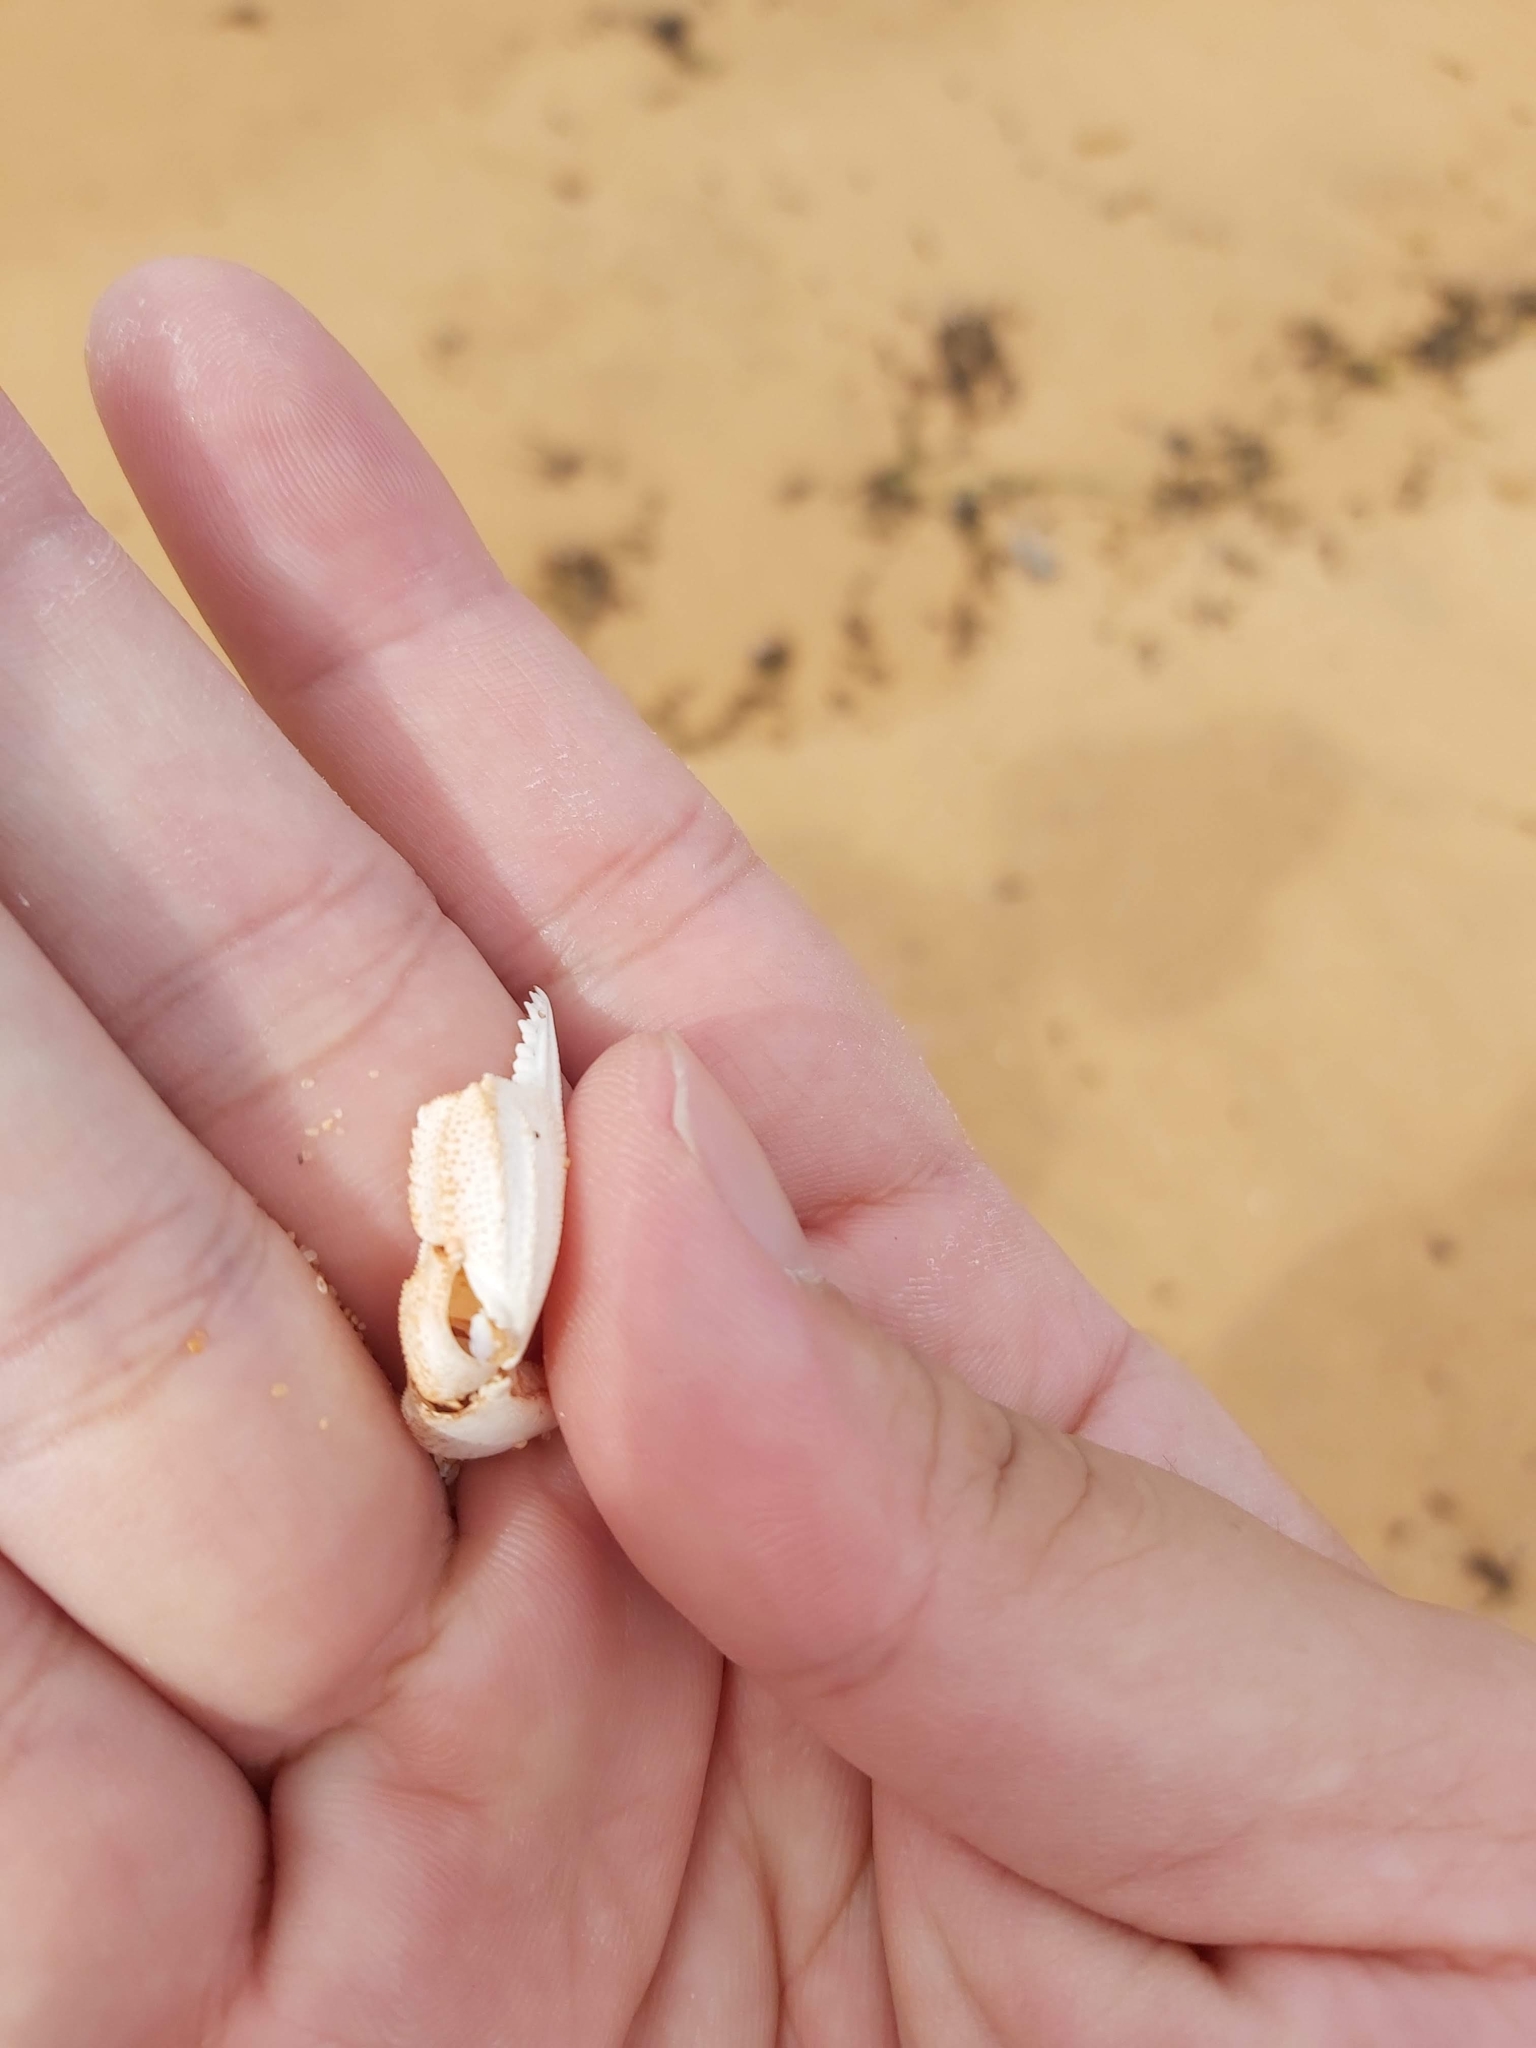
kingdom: Animalia
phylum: Arthropoda
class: Malacostraca
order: Decapoda
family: Ovalipidae
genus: Ovalipes
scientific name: Ovalipes australiensis
